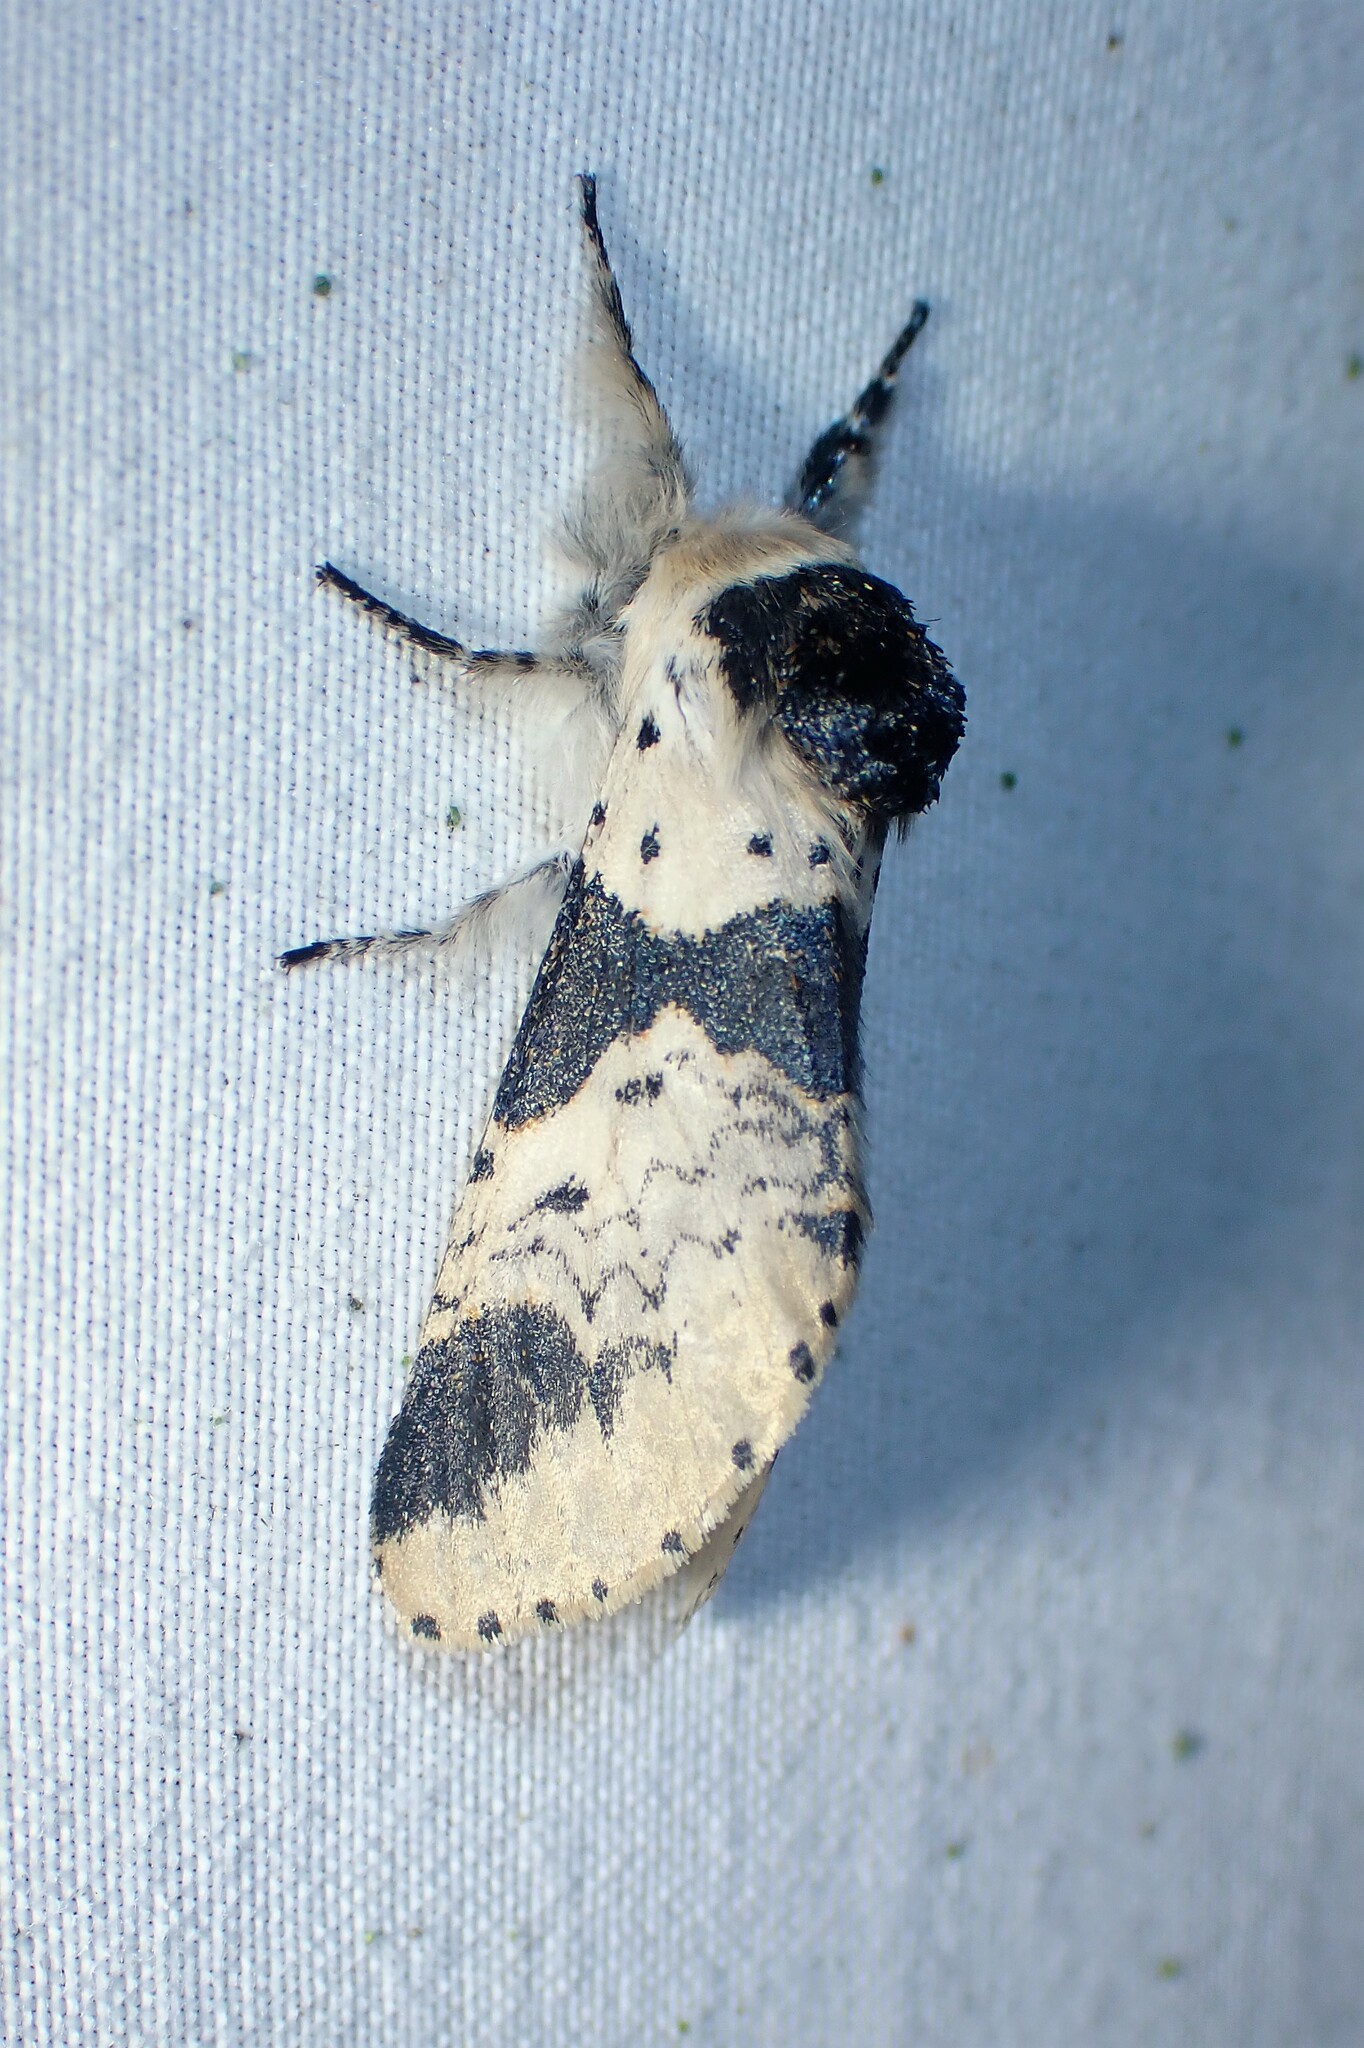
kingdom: Animalia
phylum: Arthropoda
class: Insecta
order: Lepidoptera
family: Notodontidae
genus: Furcula
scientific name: Furcula modesta
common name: Modest furcula moth
